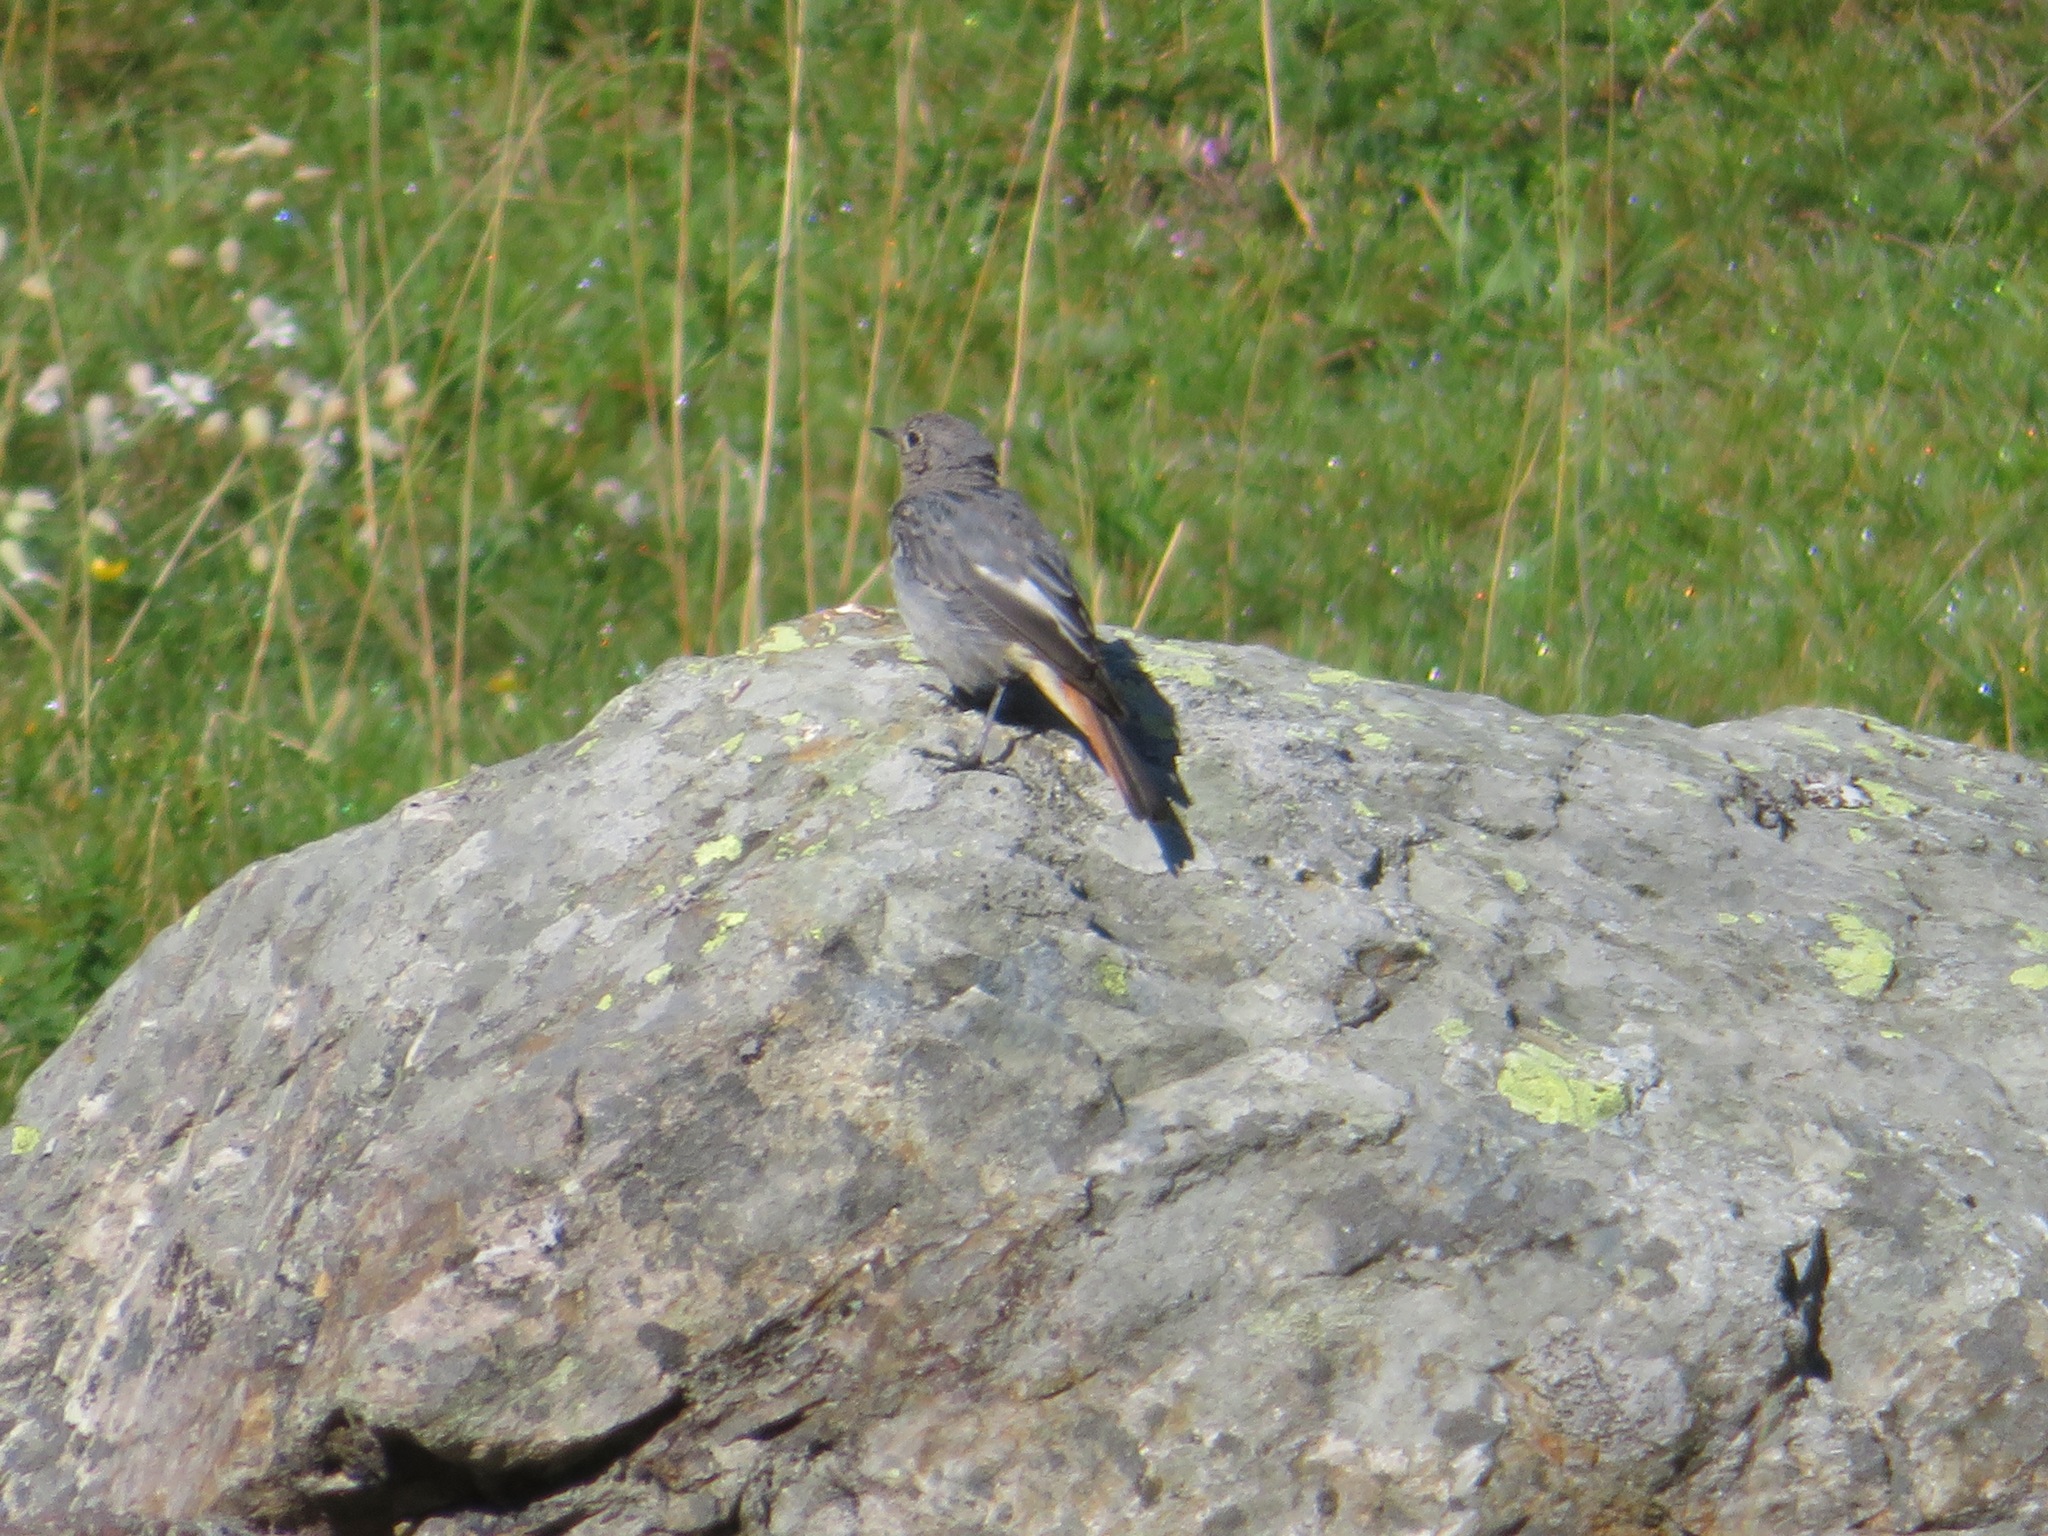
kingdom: Animalia
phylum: Chordata
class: Aves
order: Passeriformes
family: Muscicapidae
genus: Phoenicurus
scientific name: Phoenicurus ochruros
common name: Black redstart
